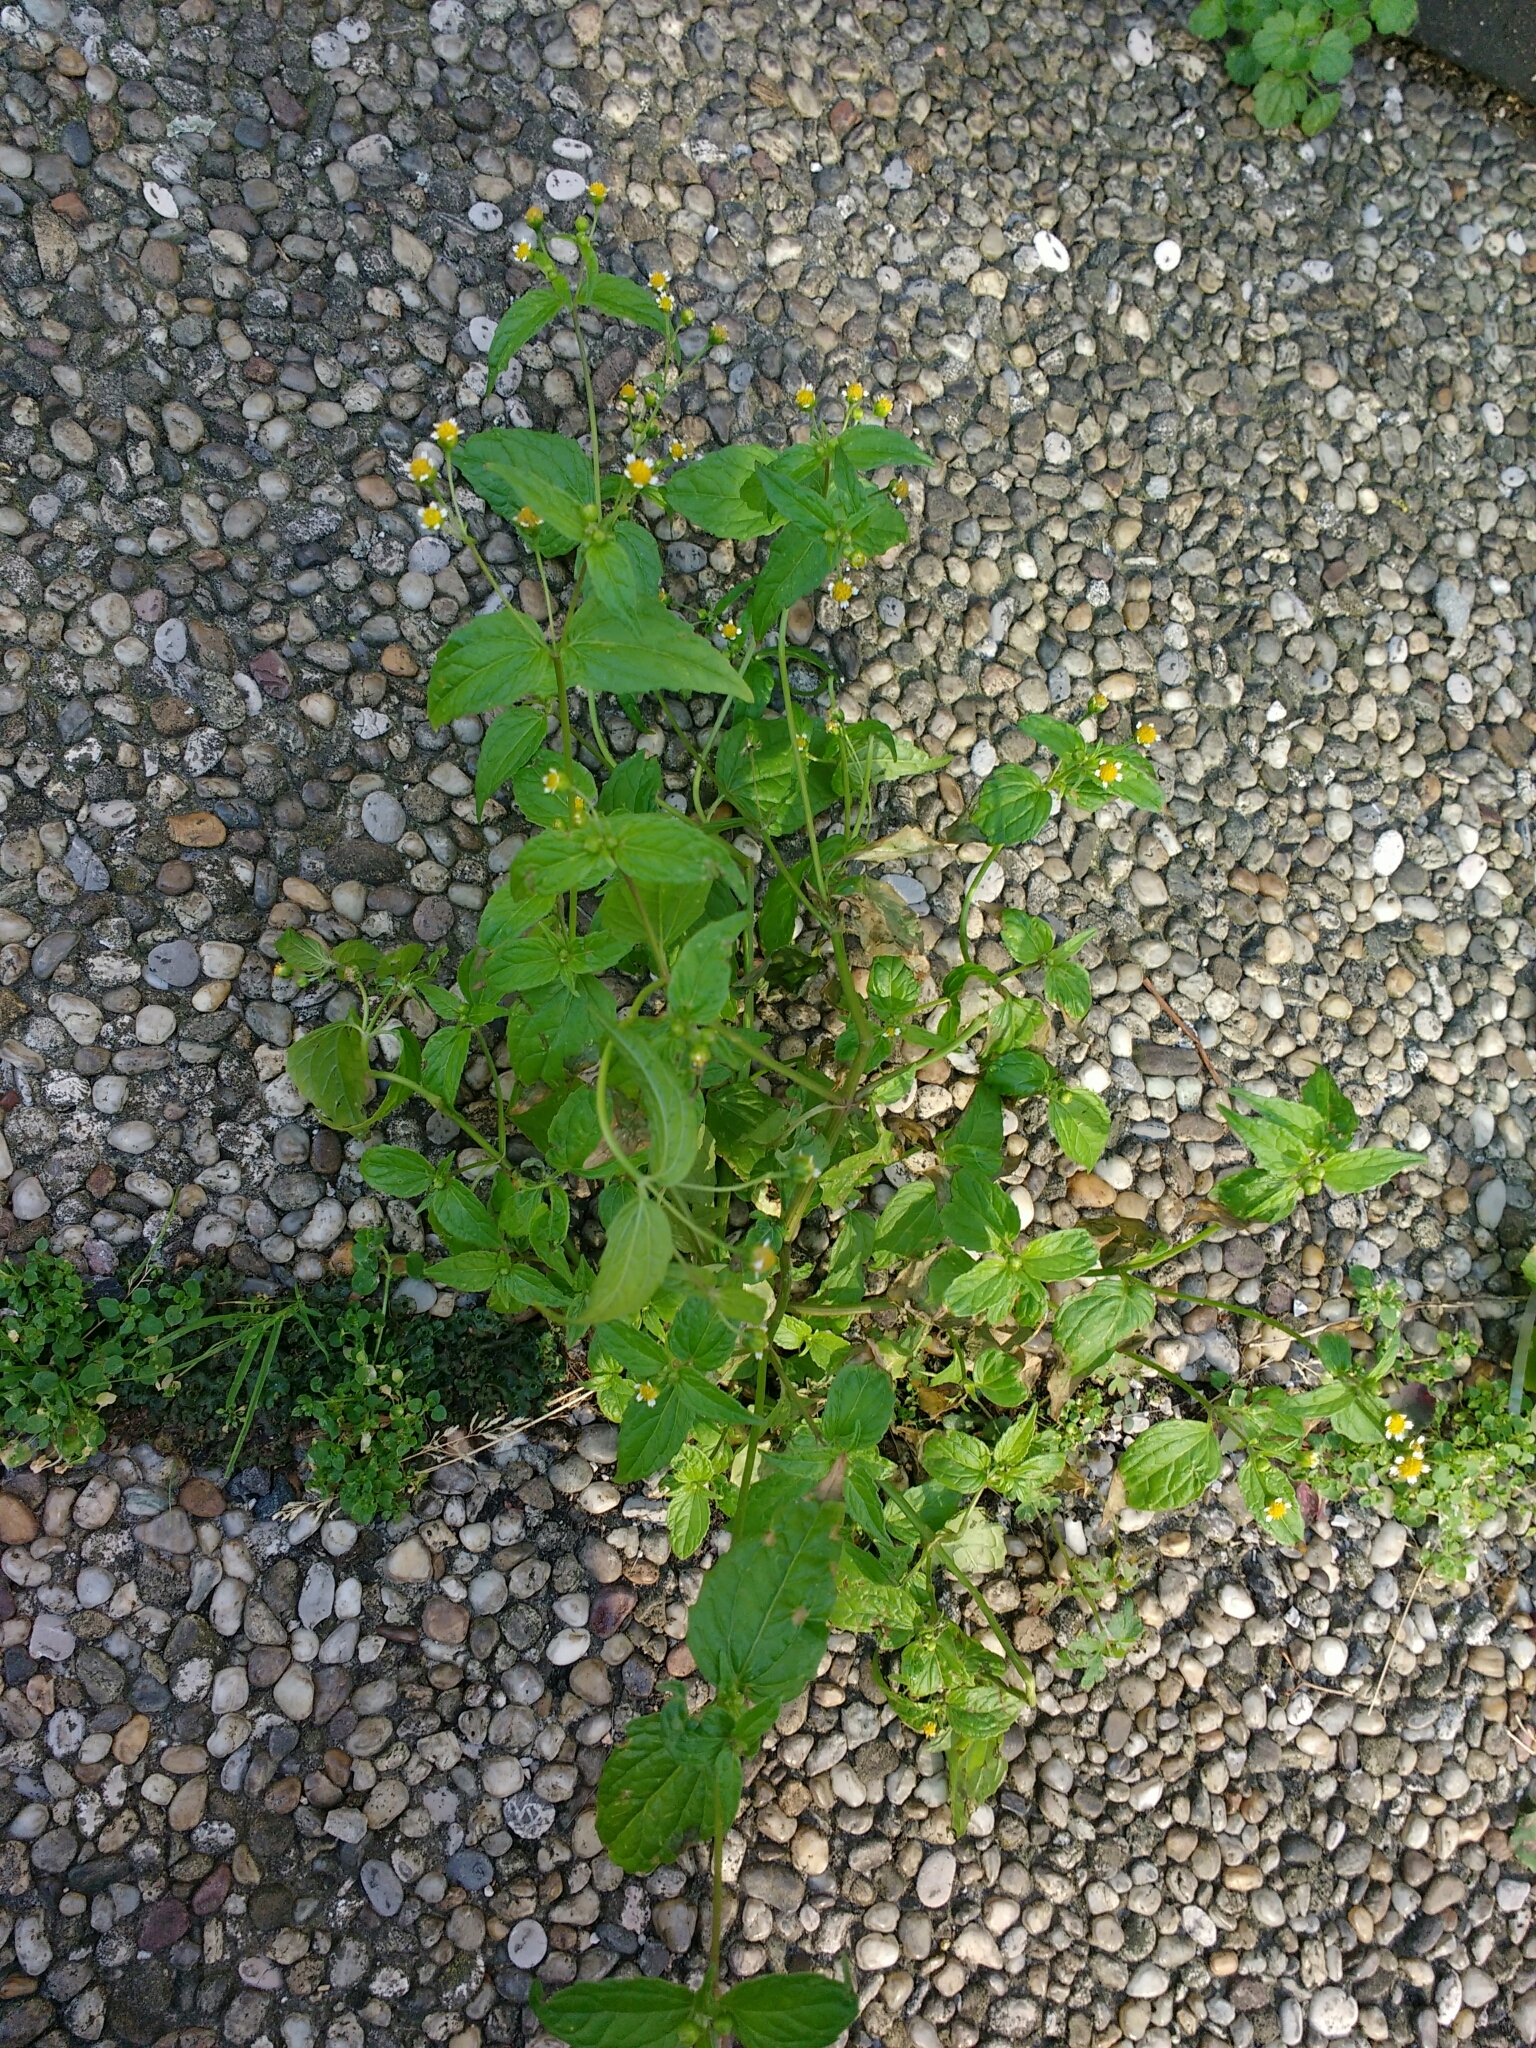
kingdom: Plantae
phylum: Tracheophyta
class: Magnoliopsida
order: Asterales
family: Asteraceae
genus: Galinsoga
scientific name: Galinsoga parviflora
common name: Gallant soldier
